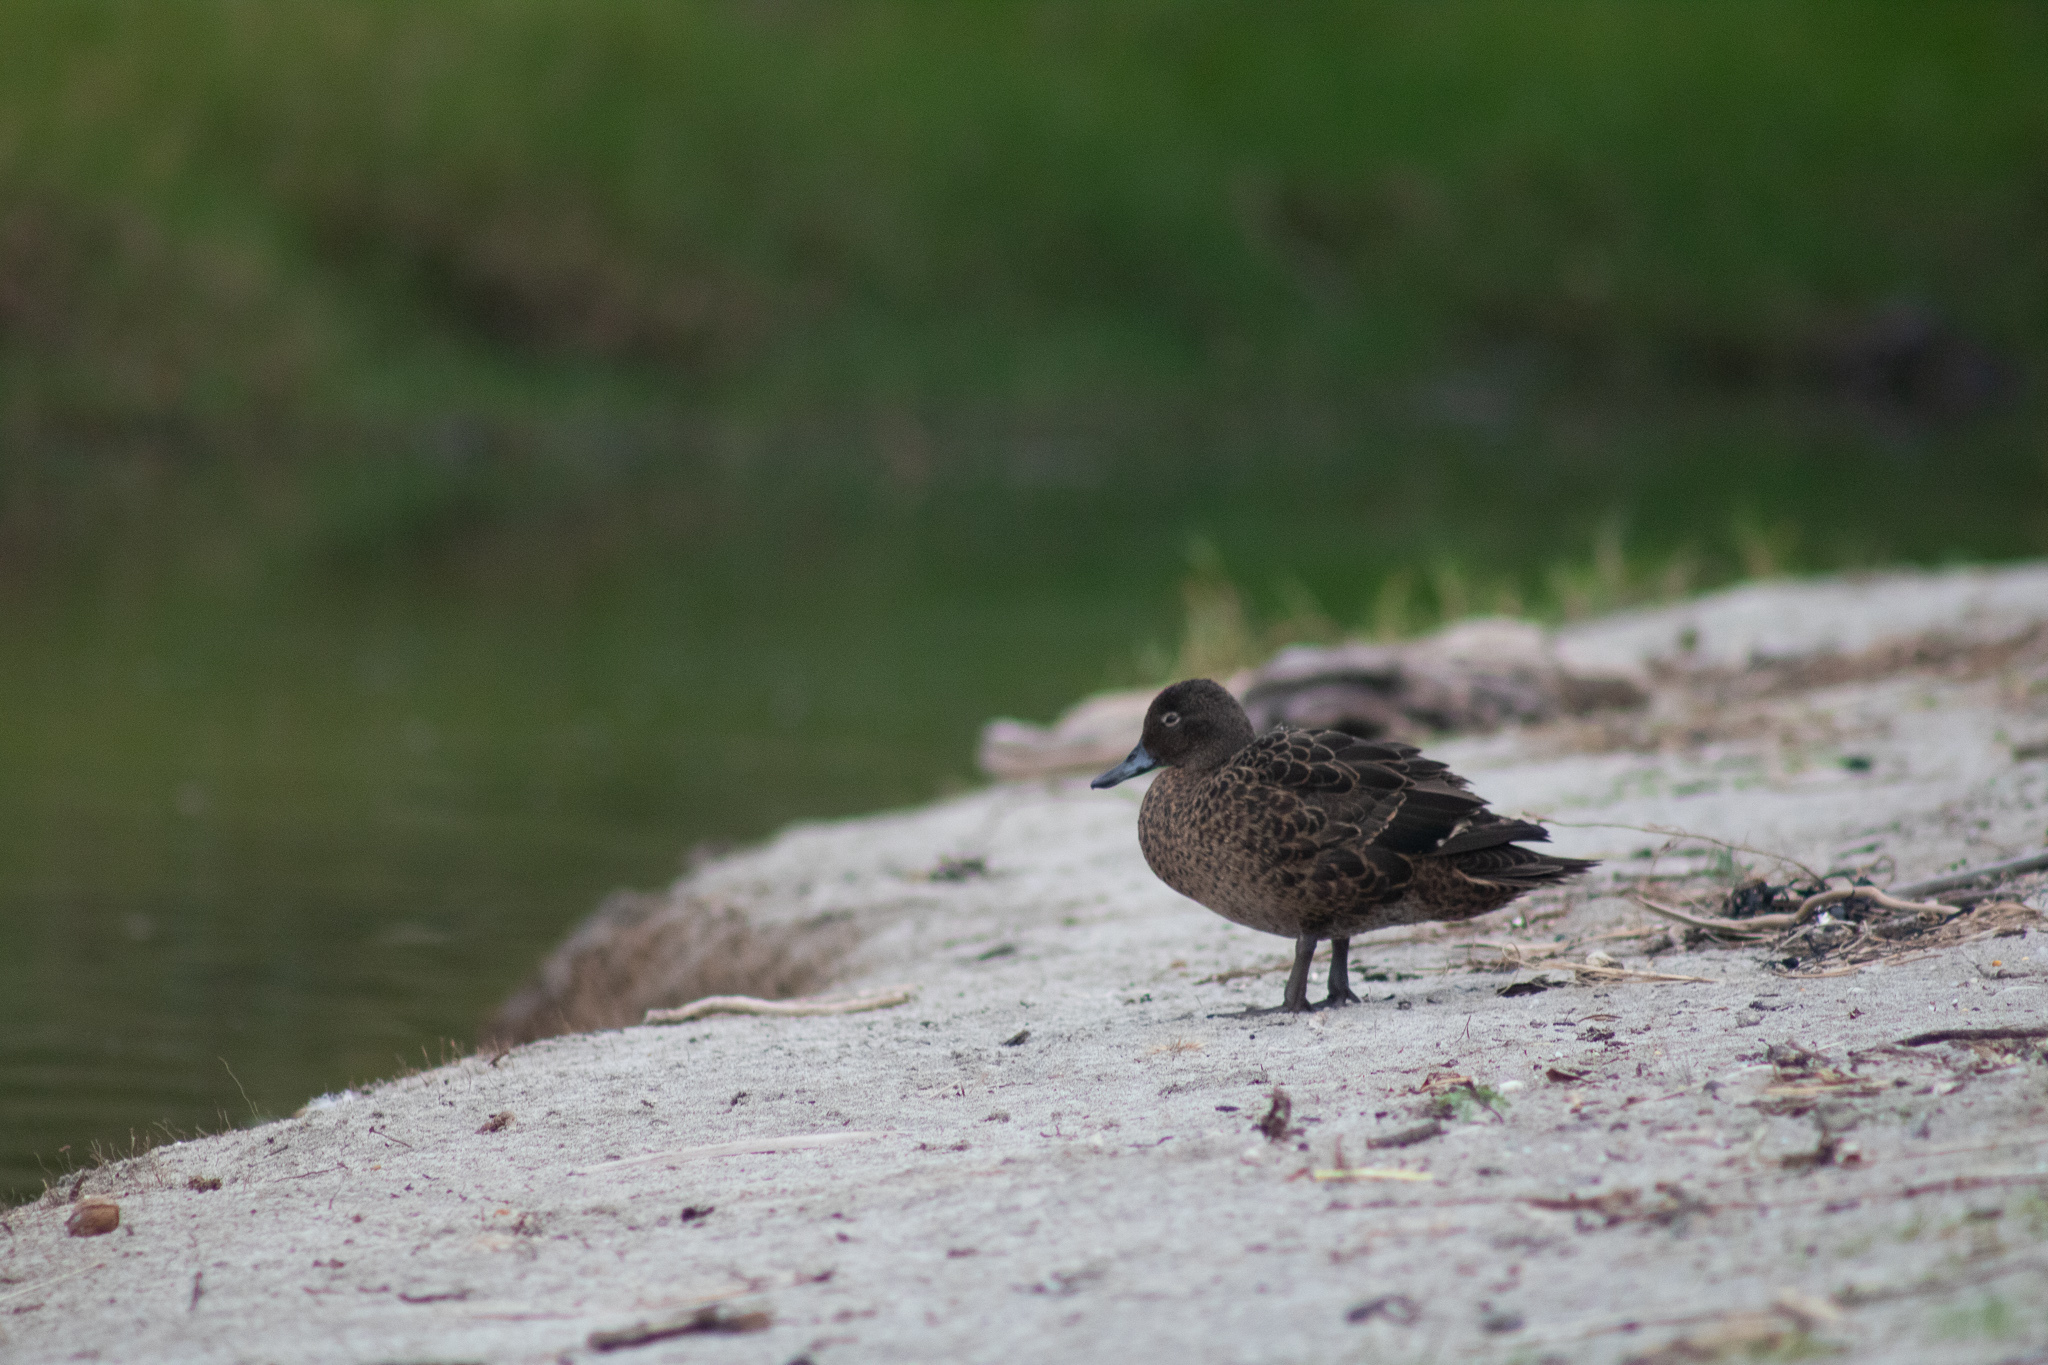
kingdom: Animalia
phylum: Chordata
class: Aves
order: Anseriformes
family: Anatidae
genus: Anas
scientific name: Anas chlorotis
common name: Brown teal
